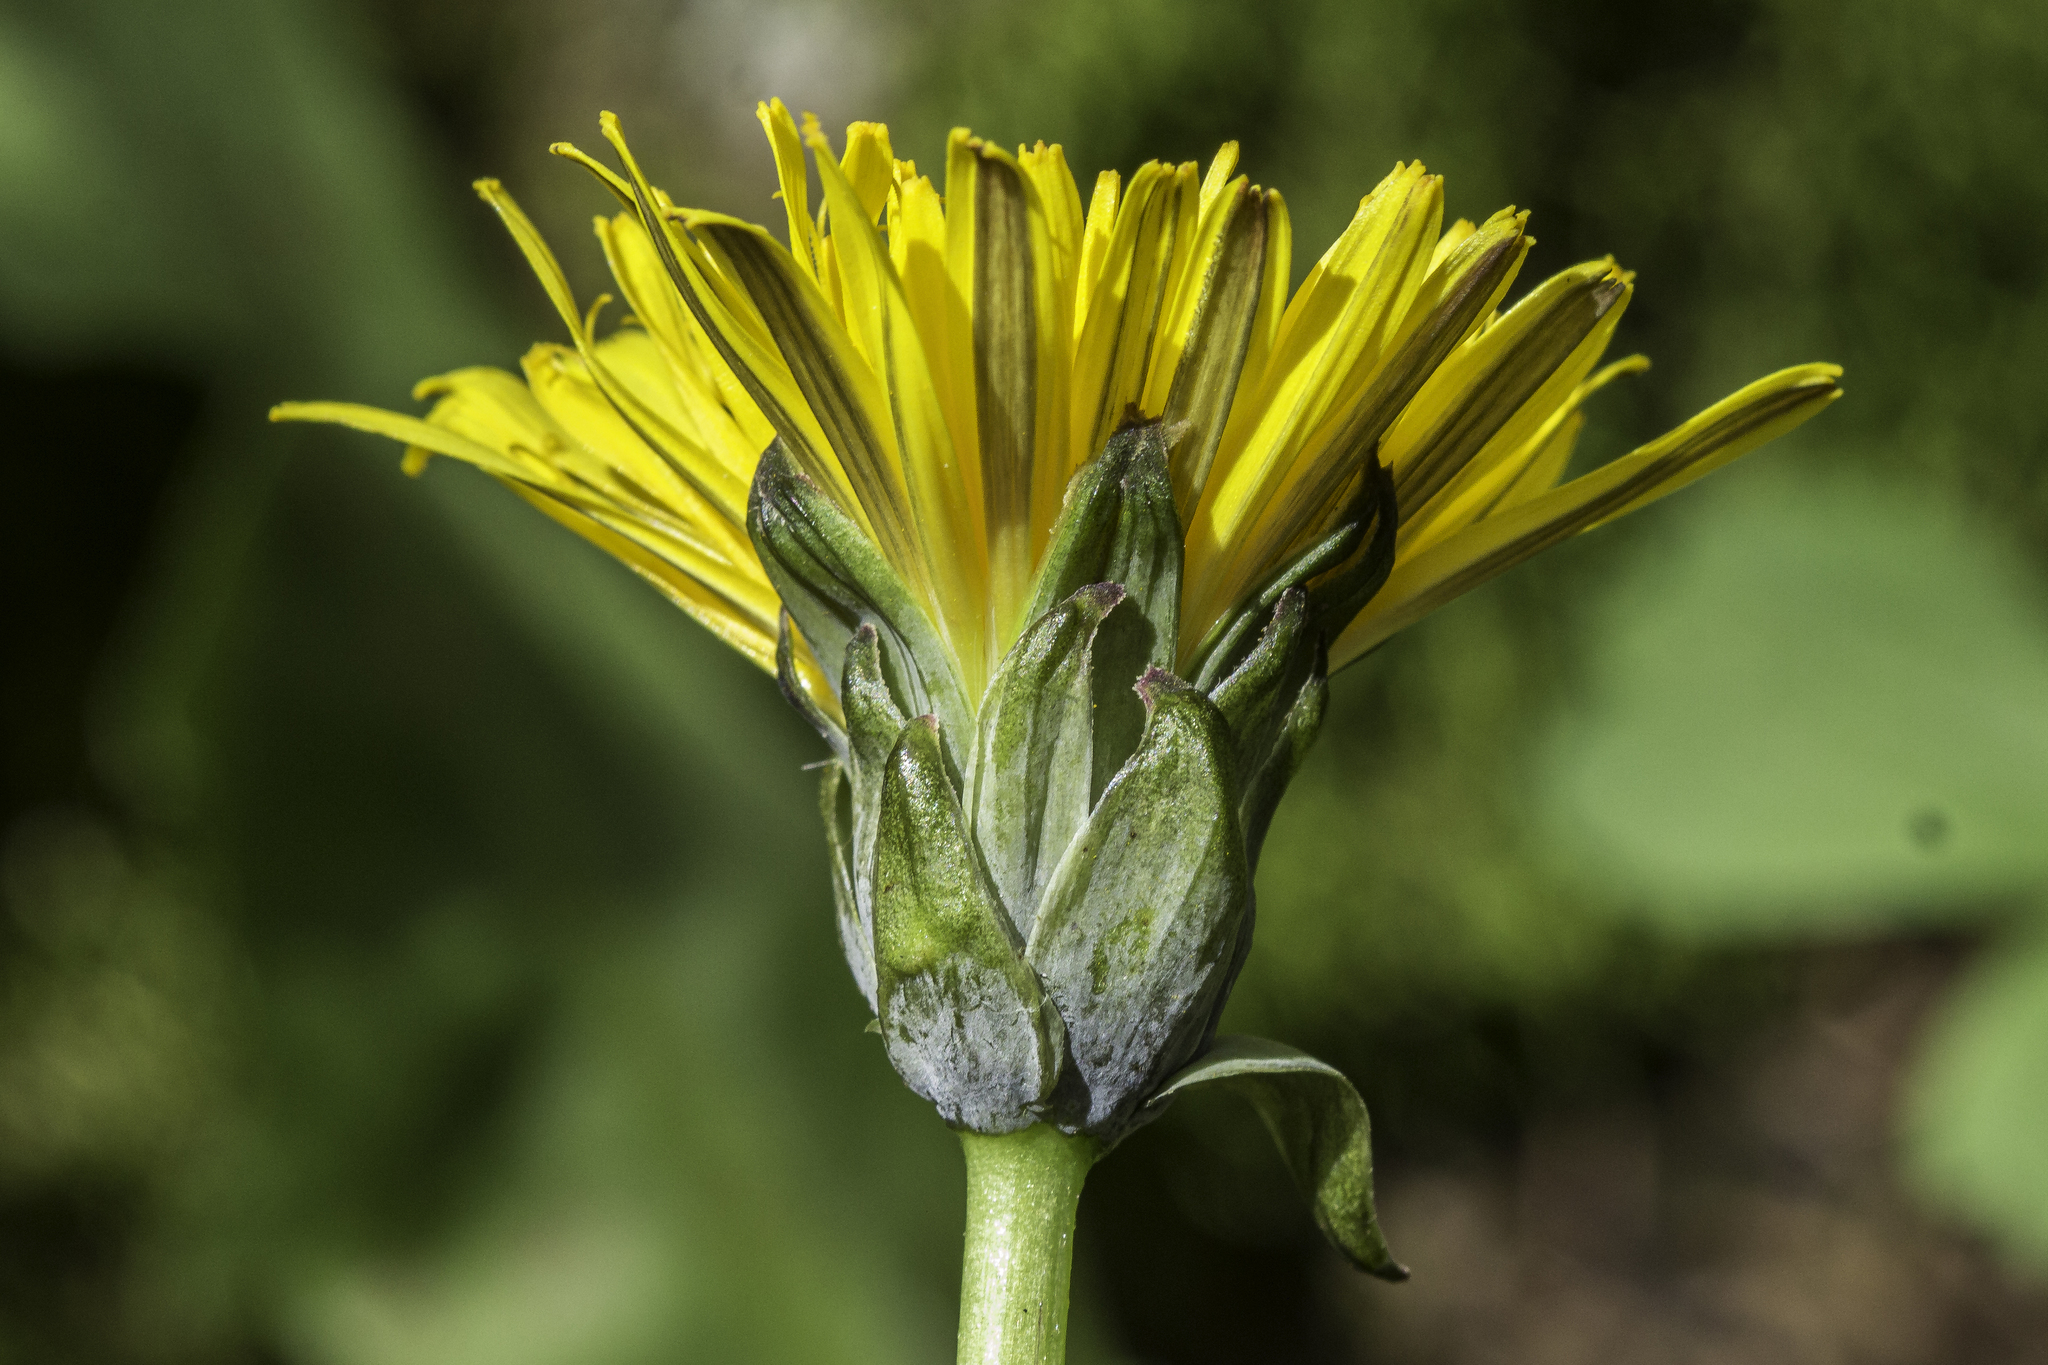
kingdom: Plantae
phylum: Tracheophyta
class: Magnoliopsida
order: Asterales
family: Asteraceae
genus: Taraxacum
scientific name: Taraxacum ceratophorum
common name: Horn-bearing dandelion
